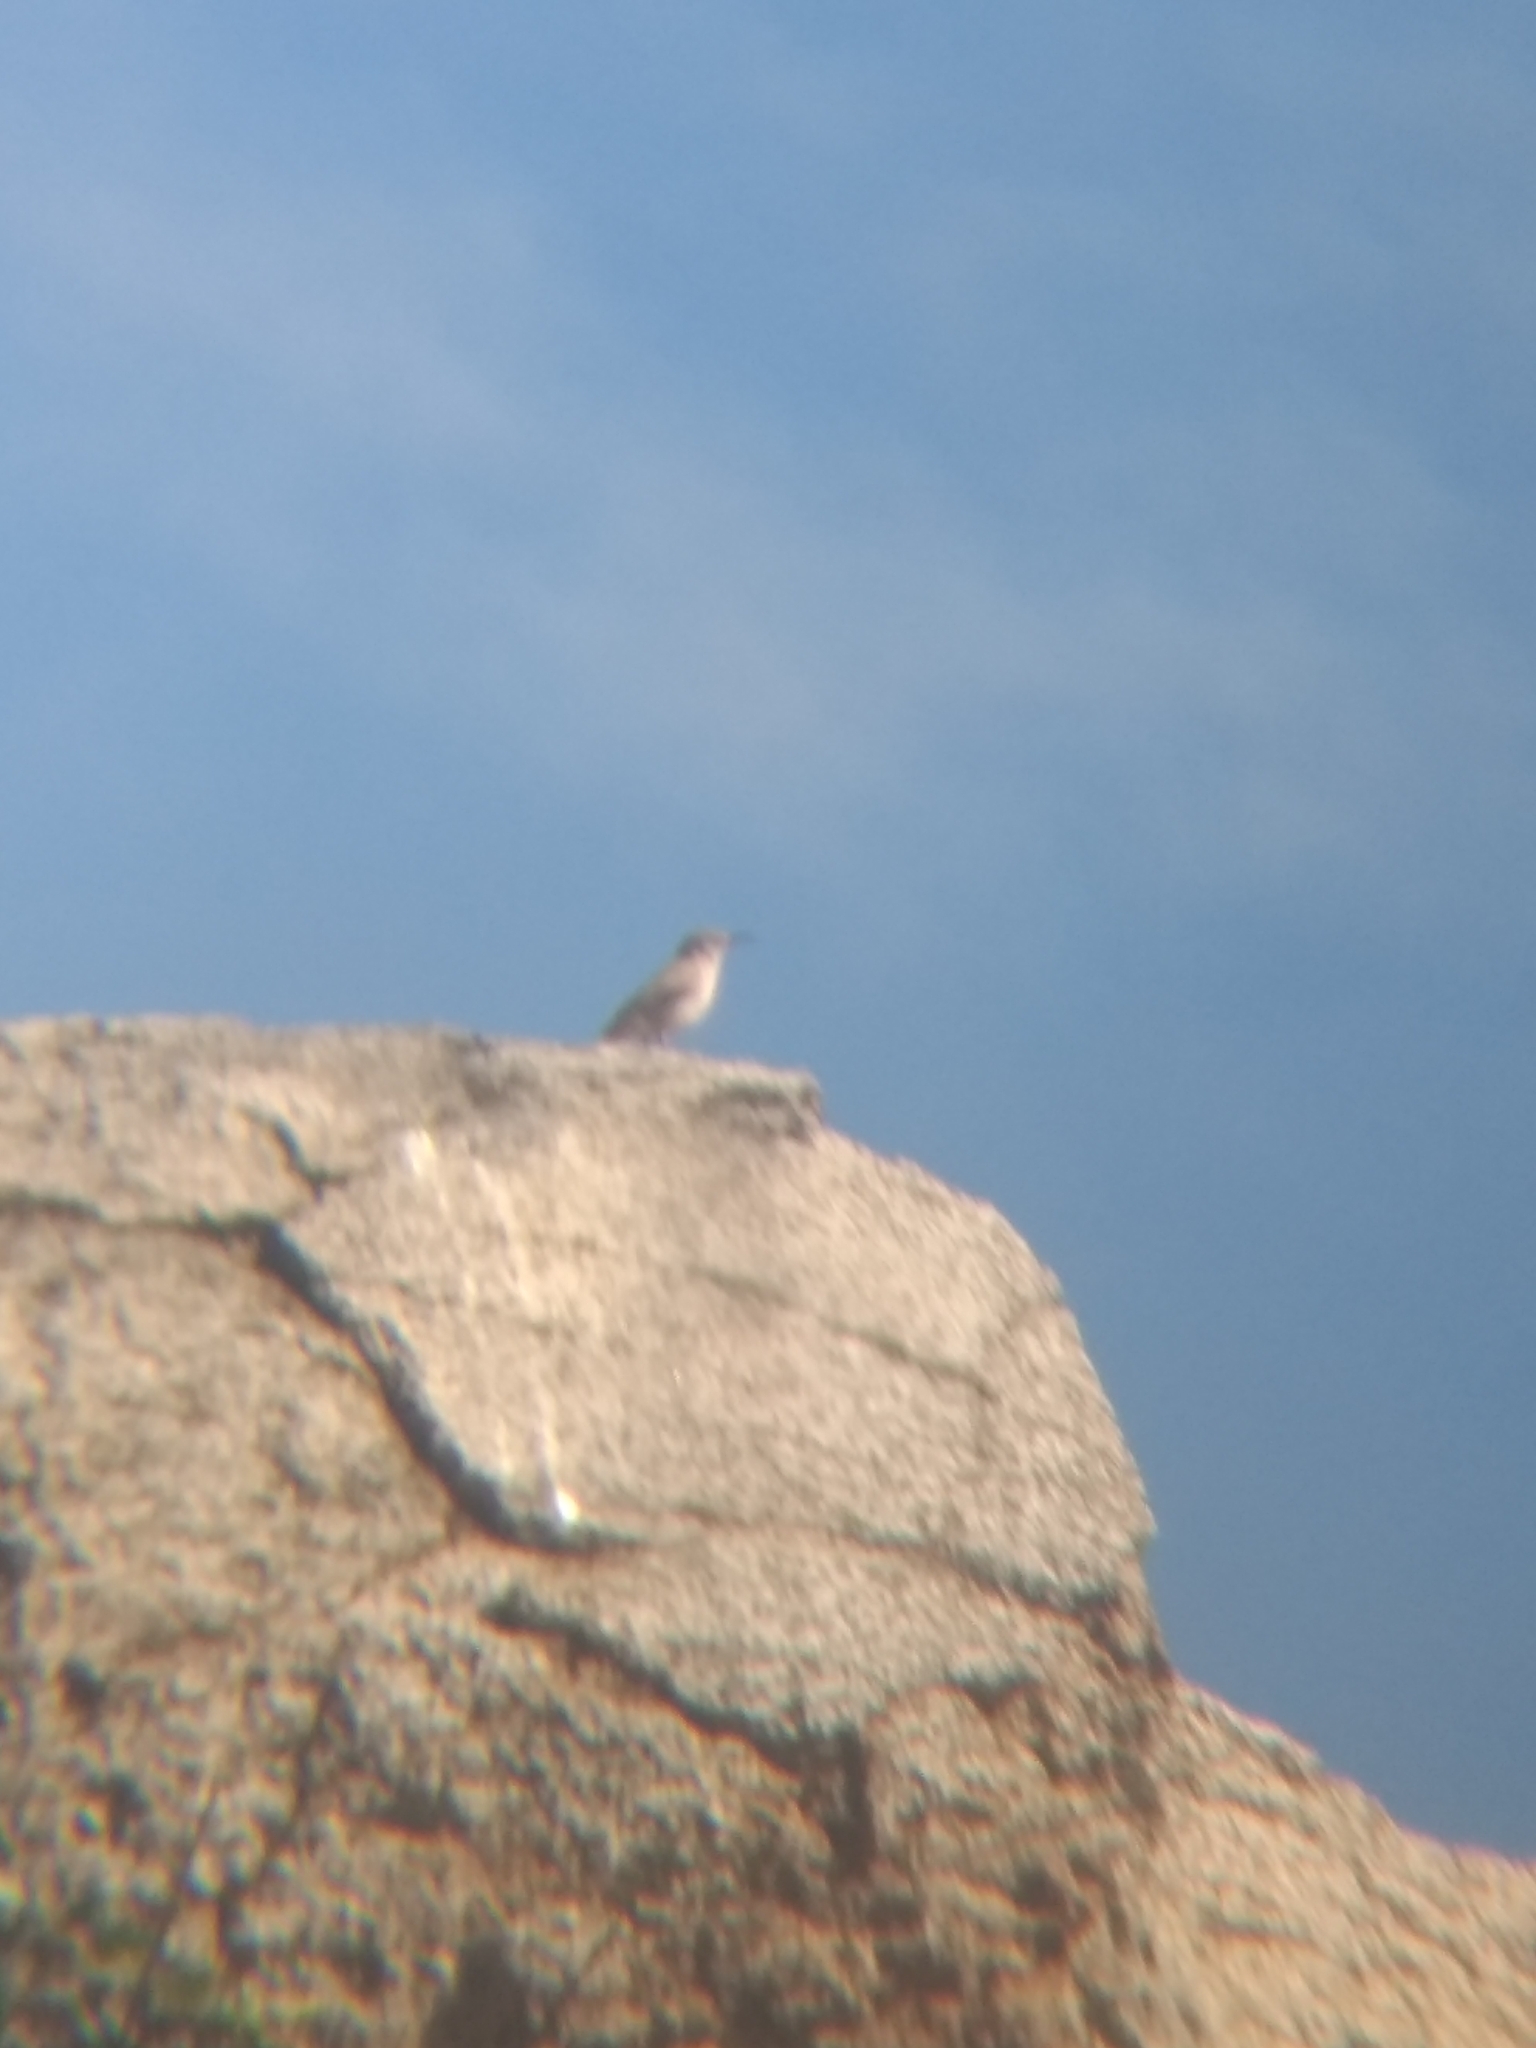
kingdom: Animalia
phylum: Chordata
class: Aves
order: Passeriformes
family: Troglodytidae
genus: Salpinctes
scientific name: Salpinctes obsoletus
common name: Rock wren
